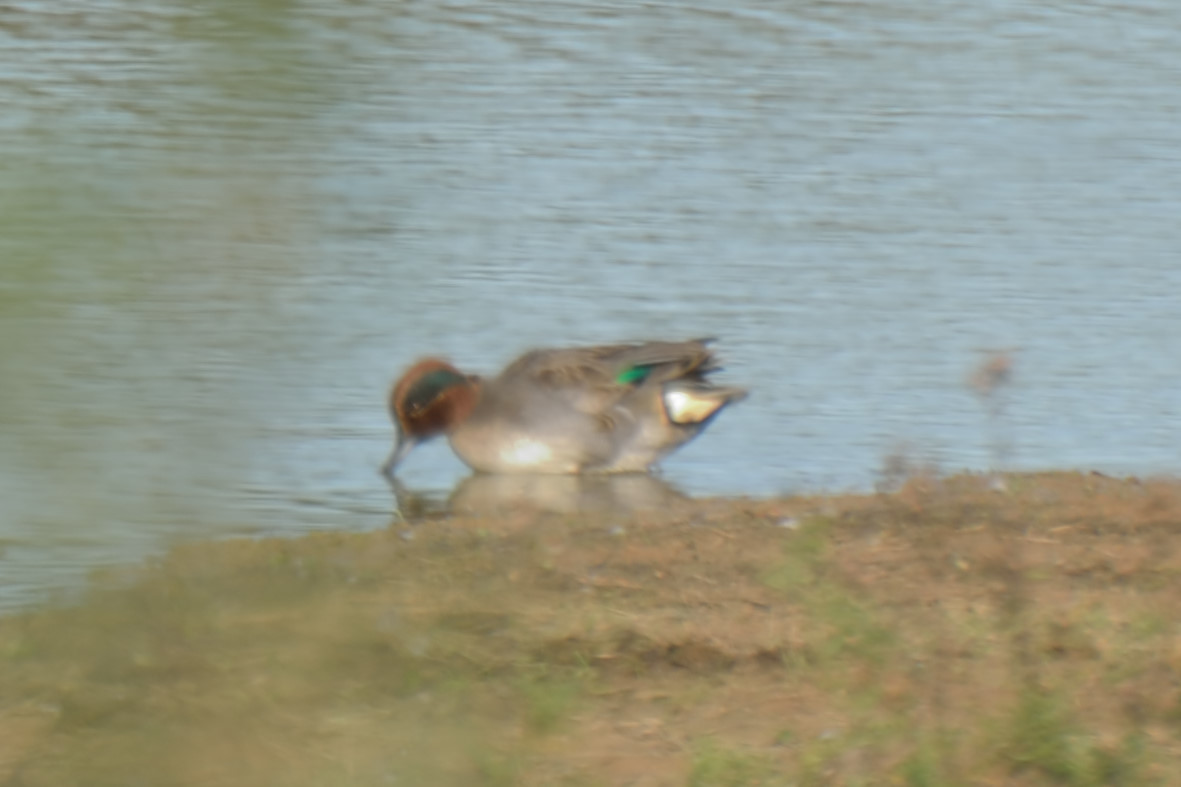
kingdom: Animalia
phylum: Chordata
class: Aves
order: Anseriformes
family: Anatidae
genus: Anas
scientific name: Anas crecca
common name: Eurasian teal
